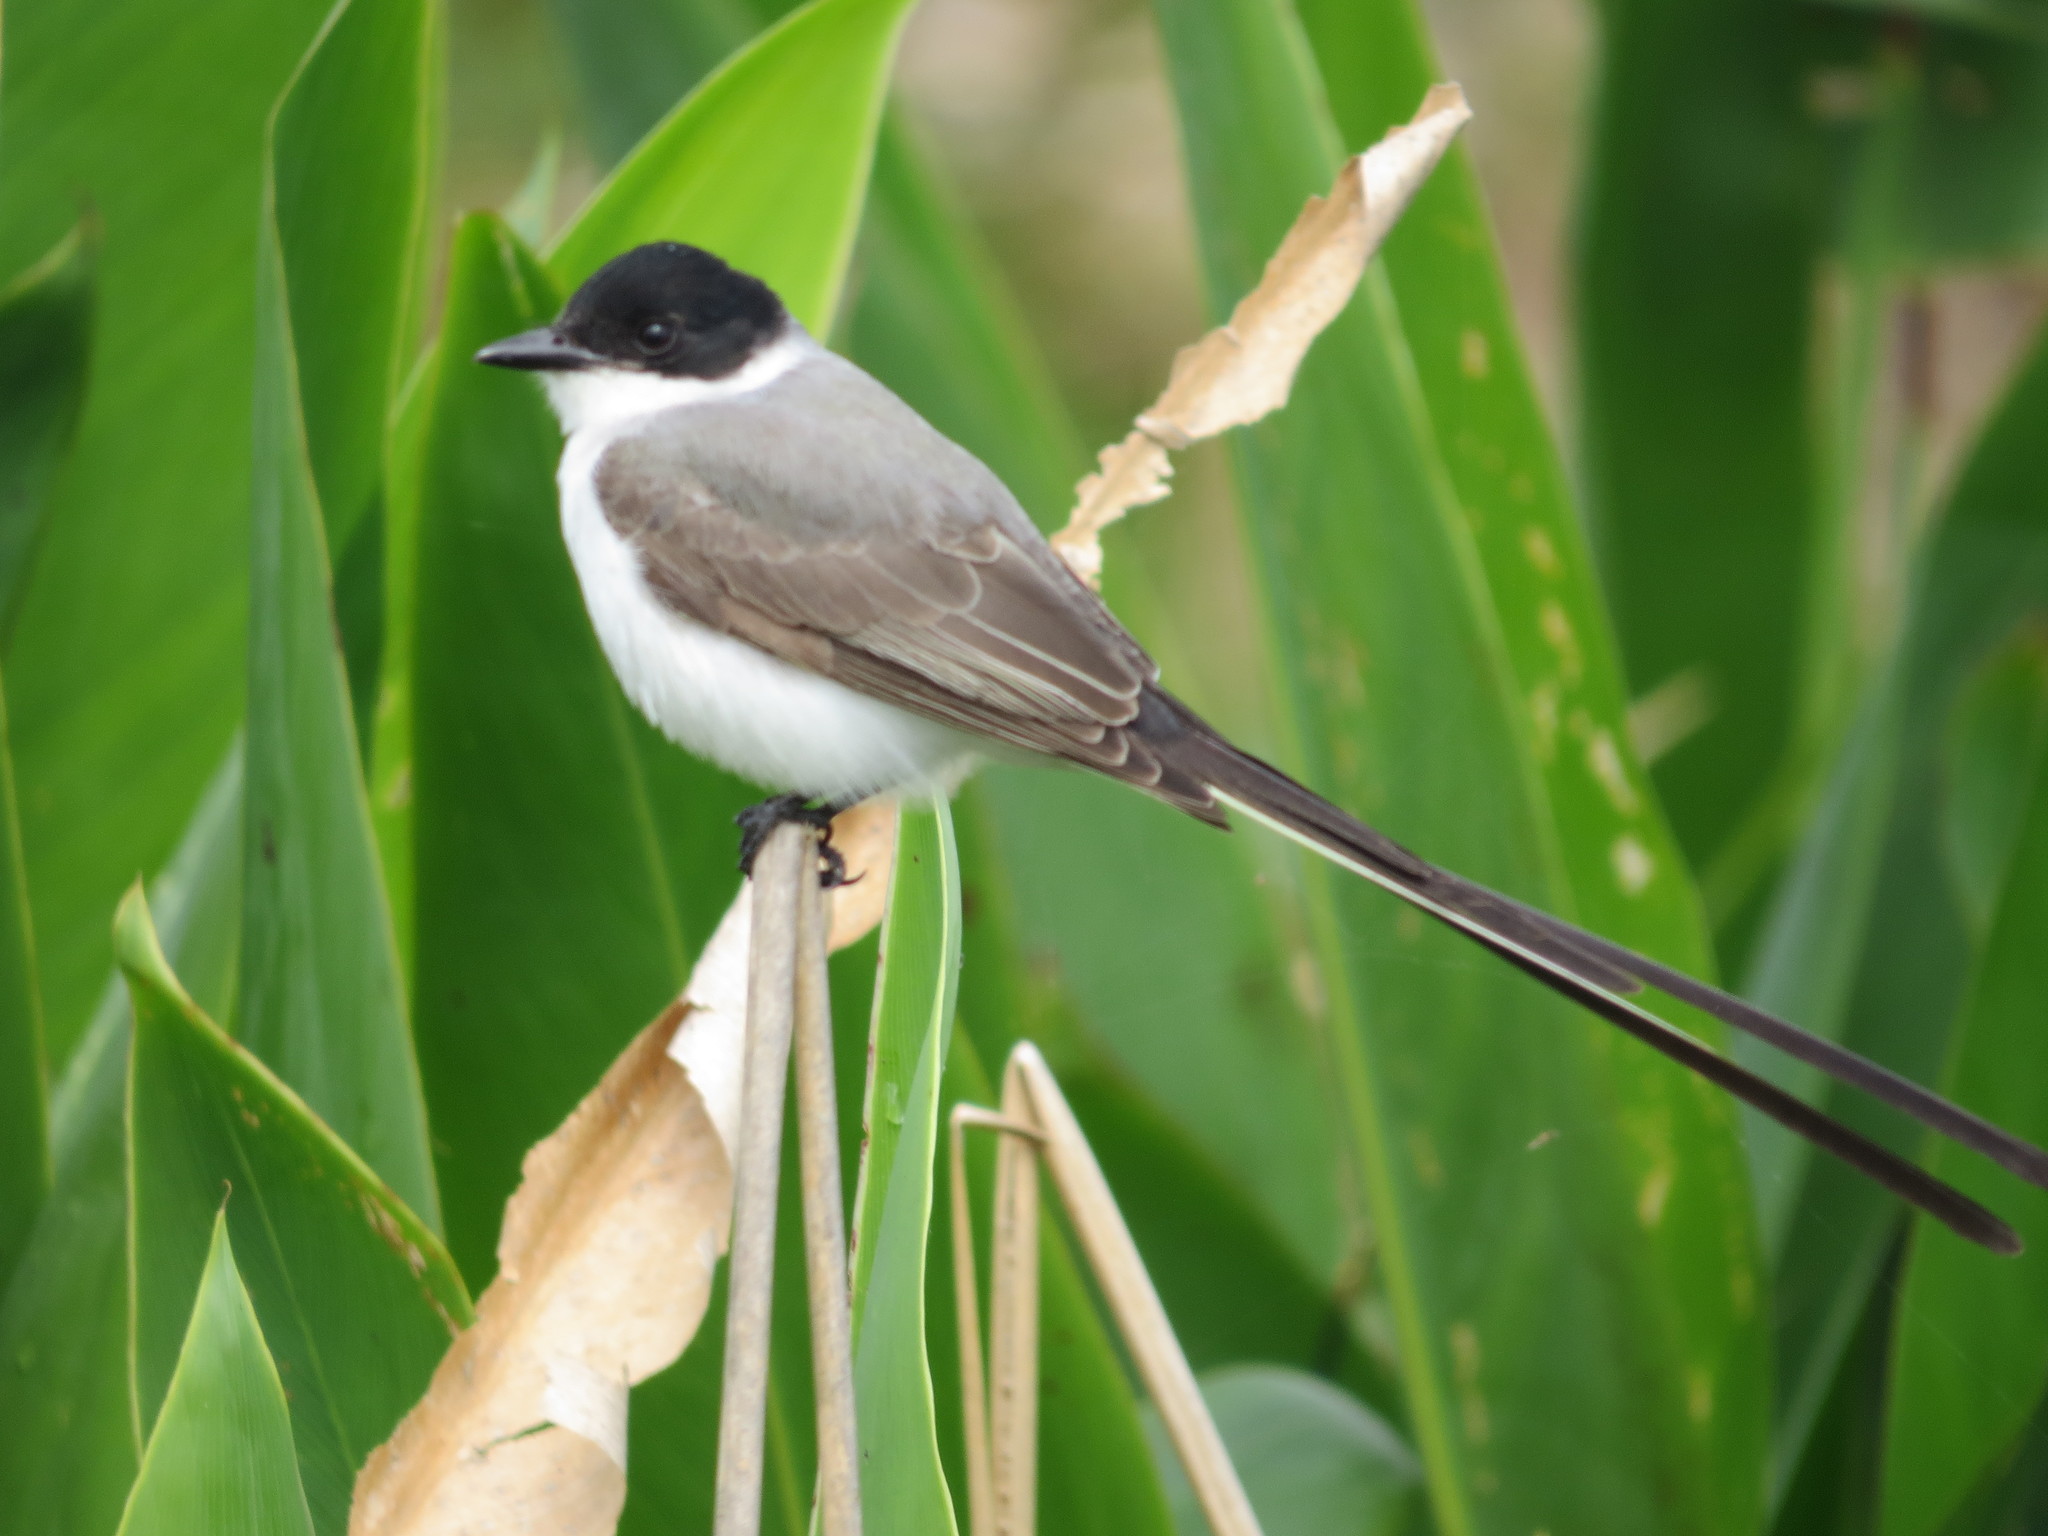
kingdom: Animalia
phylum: Chordata
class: Aves
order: Passeriformes
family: Tyrannidae
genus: Tyrannus
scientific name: Tyrannus savana
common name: Fork-tailed flycatcher
